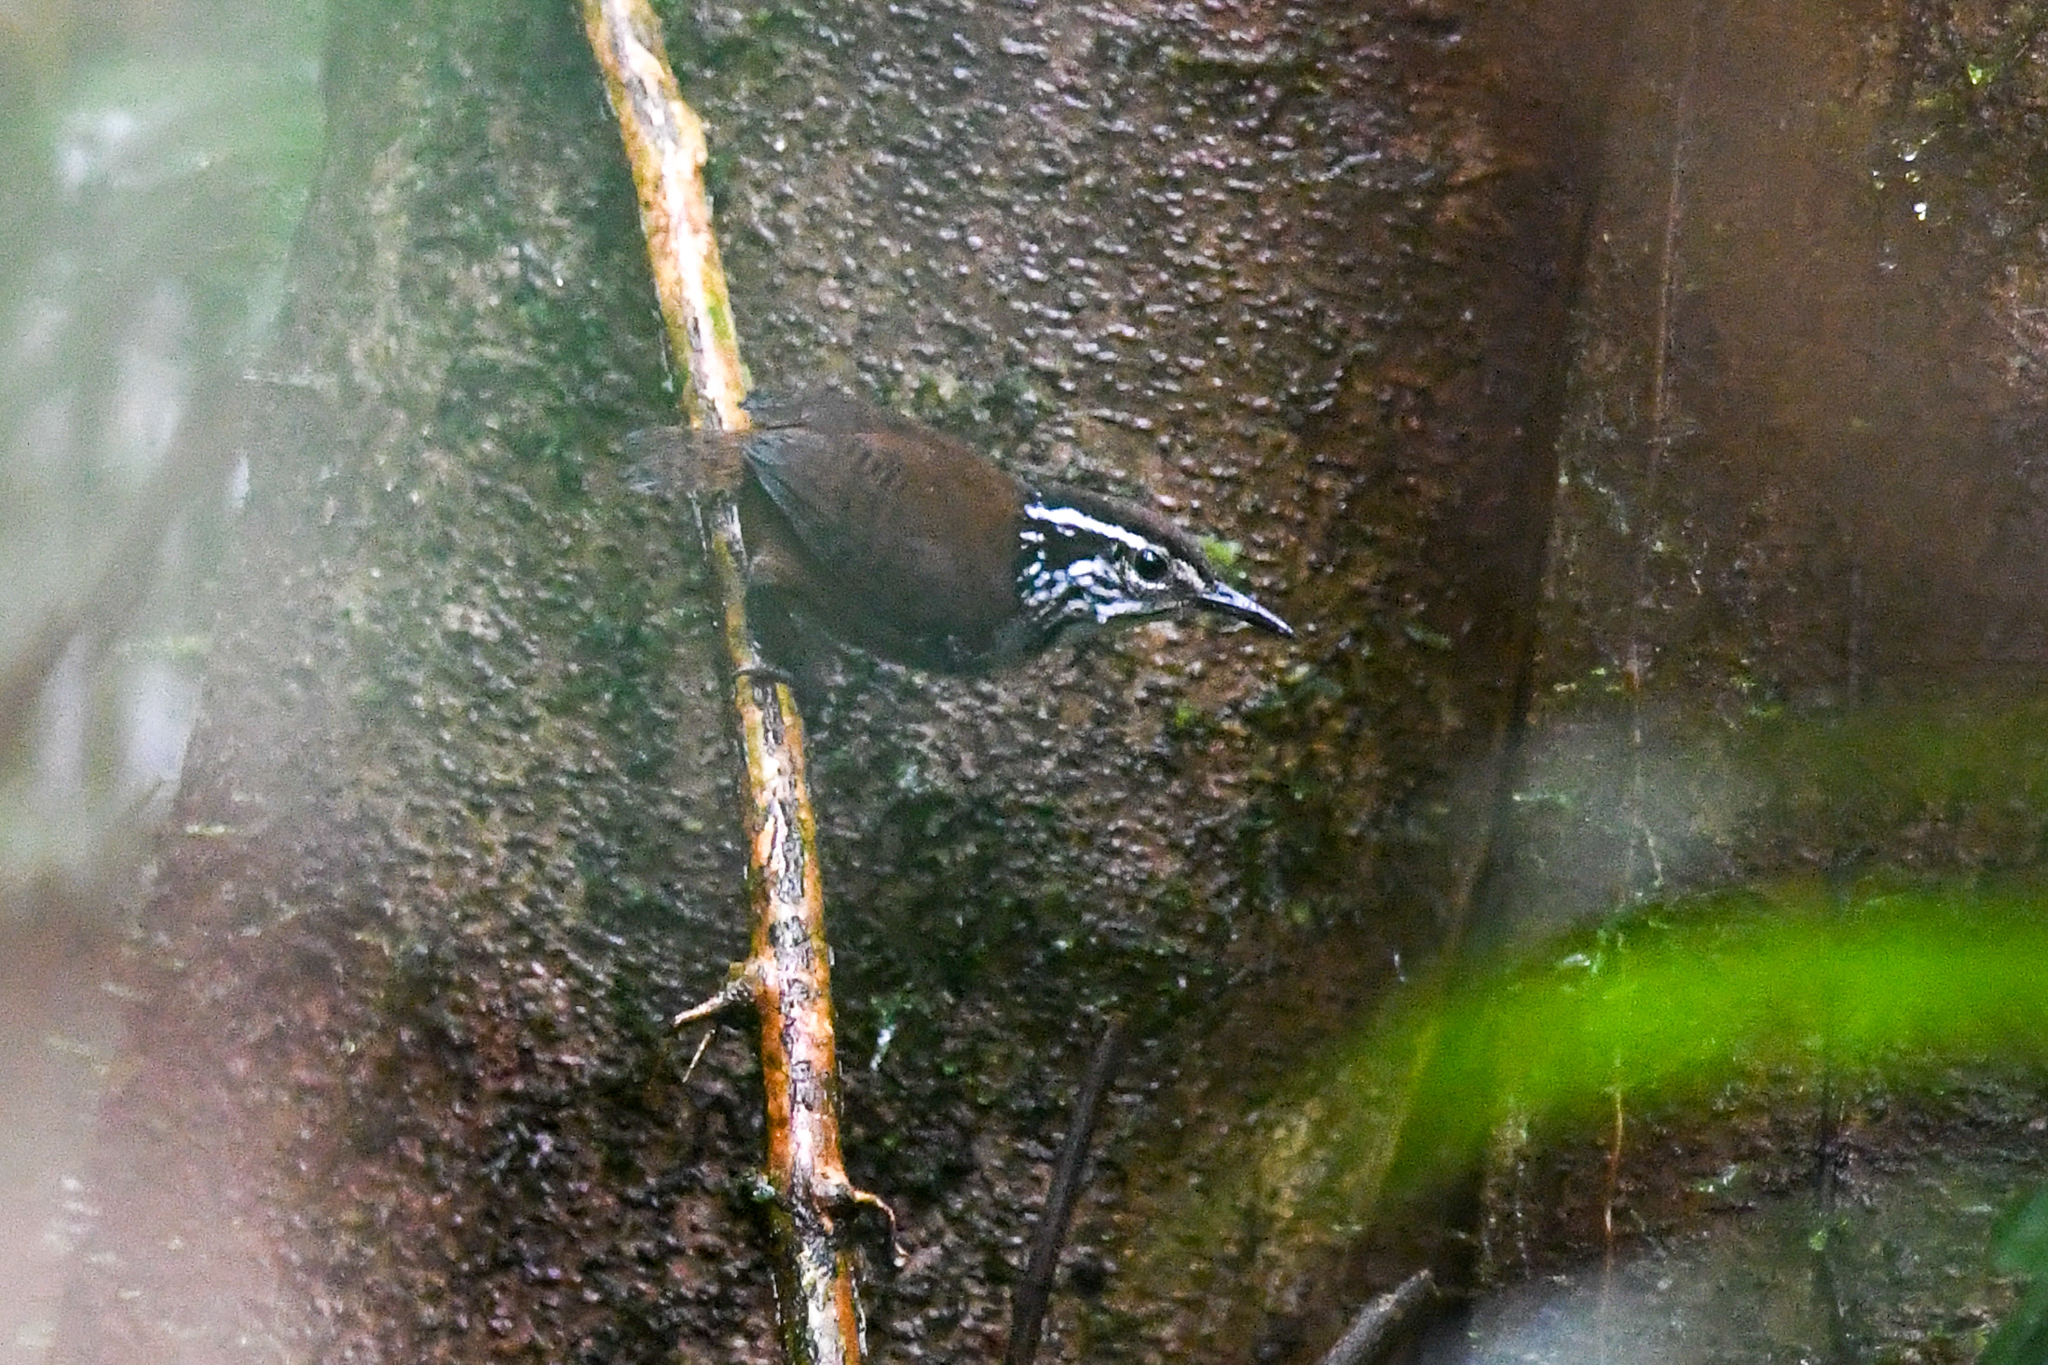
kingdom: Animalia
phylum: Chordata
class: Aves
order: Passeriformes
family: Troglodytidae
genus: Henicorhina
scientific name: Henicorhina leucosticta
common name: White-breasted wood-wren
